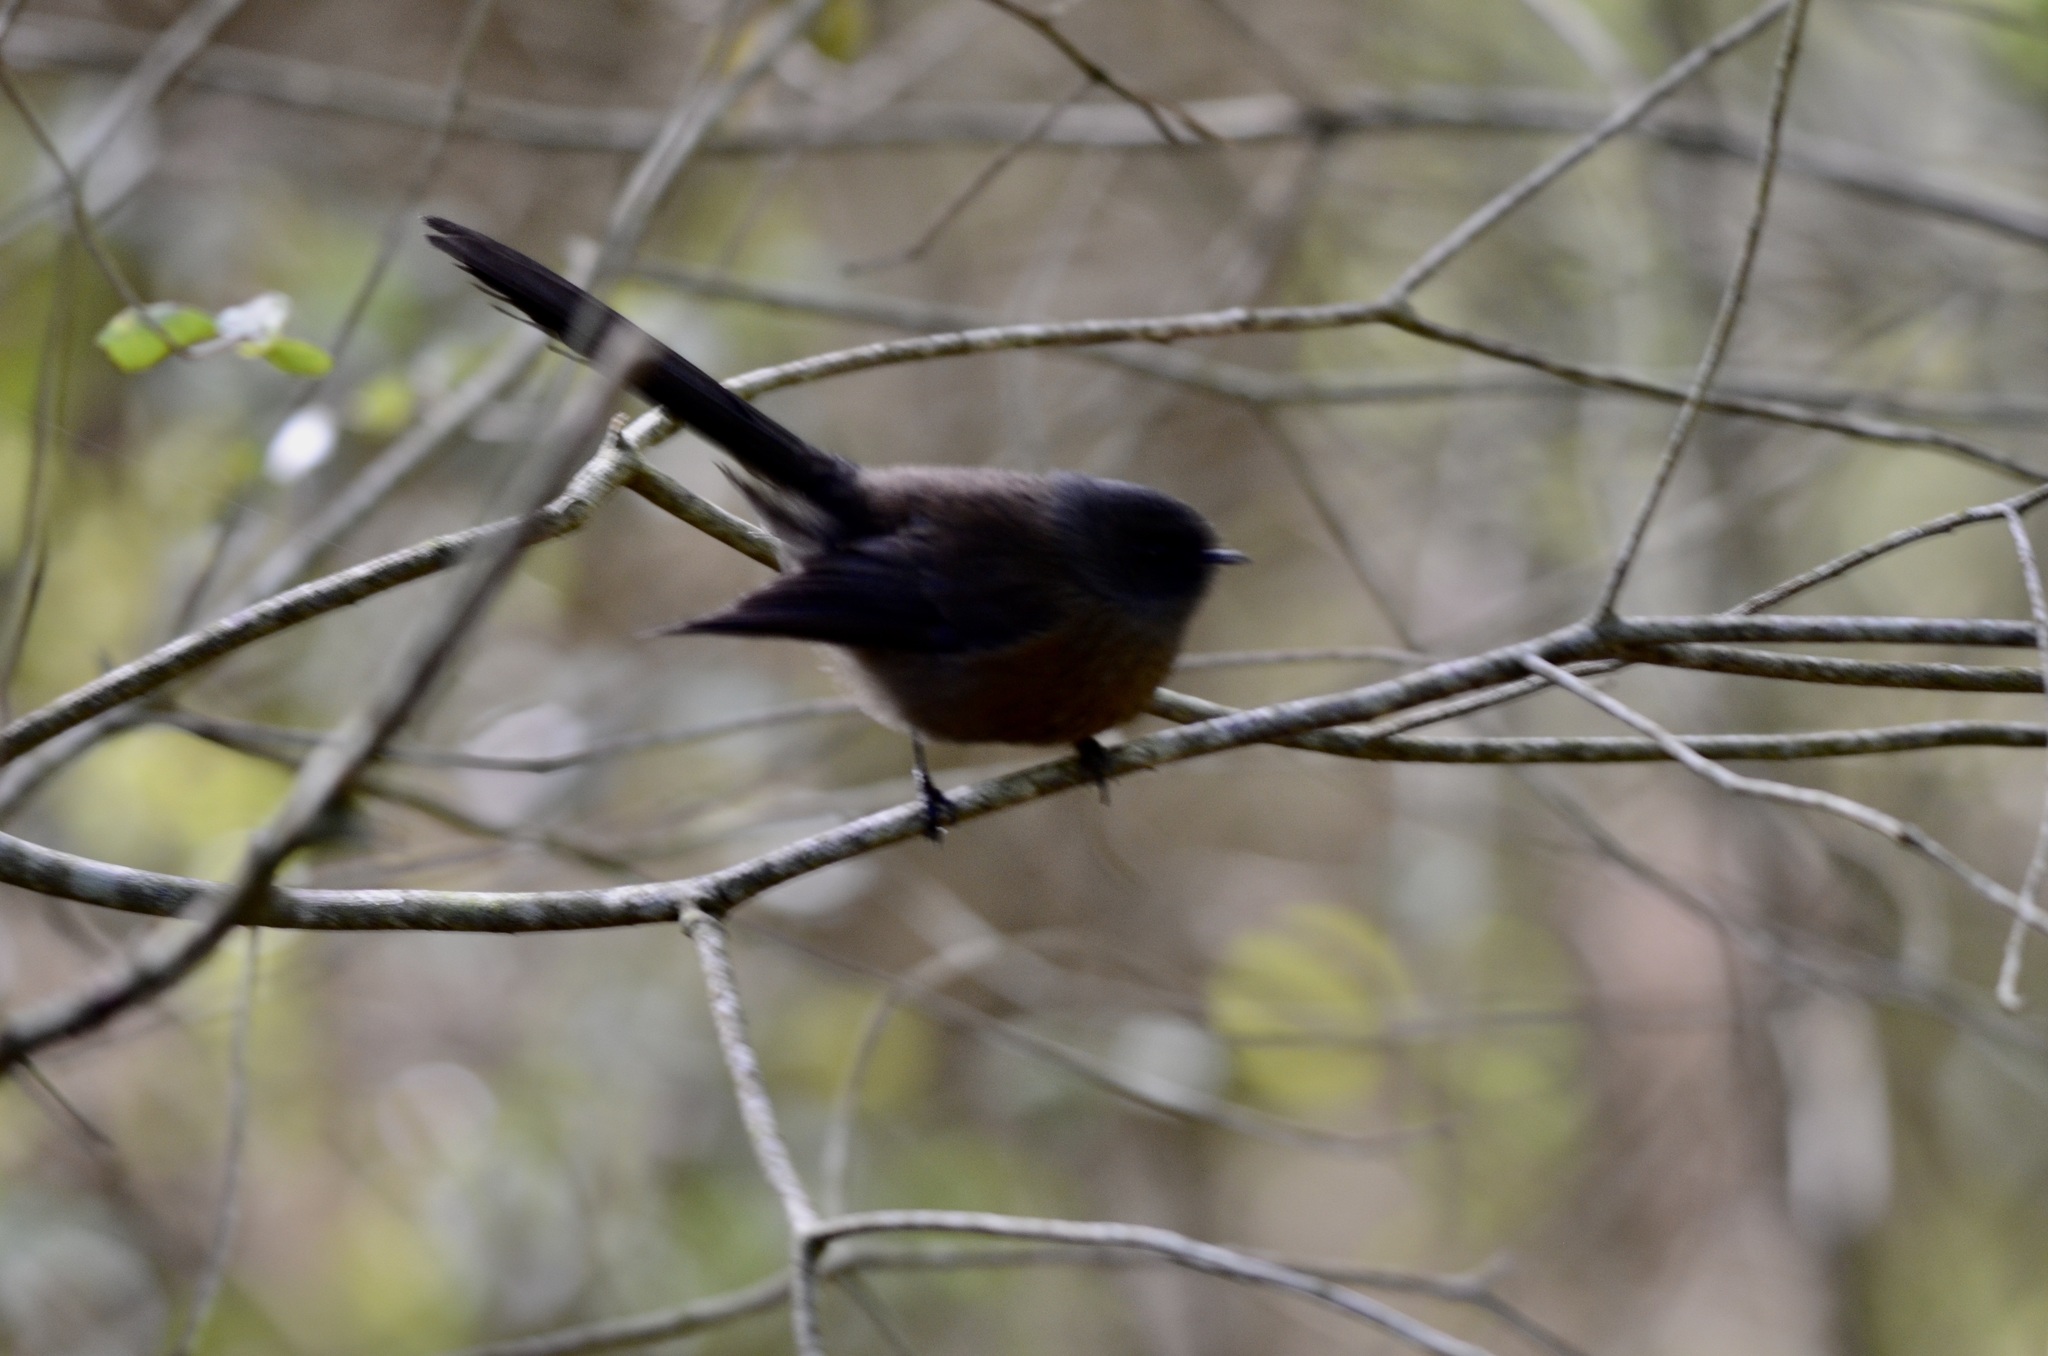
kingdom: Animalia
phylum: Chordata
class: Aves
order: Passeriformes
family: Rhipiduridae
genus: Rhipidura
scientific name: Rhipidura fuliginosa
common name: New zealand fantail
